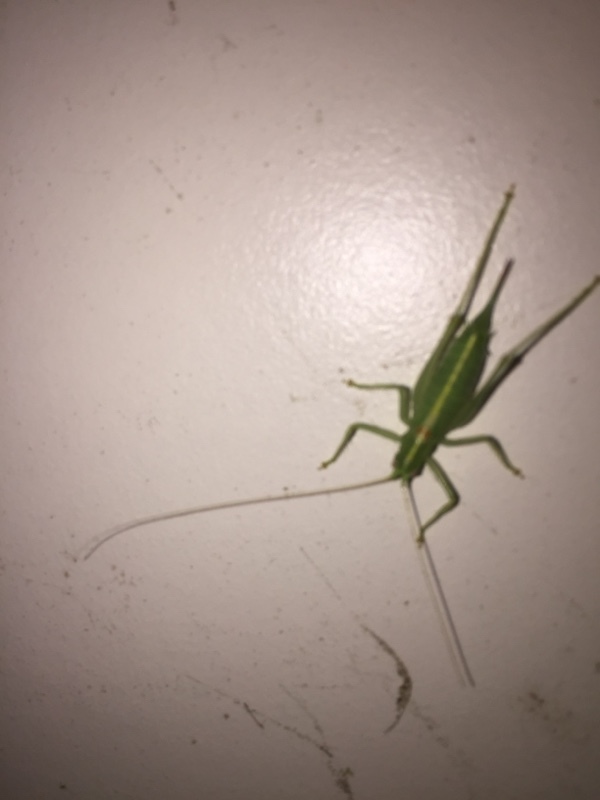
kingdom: Animalia
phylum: Arthropoda
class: Insecta
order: Orthoptera
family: Tettigoniidae
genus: Meconema
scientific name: Meconema meridionale
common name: Southern oak bush-cricket
